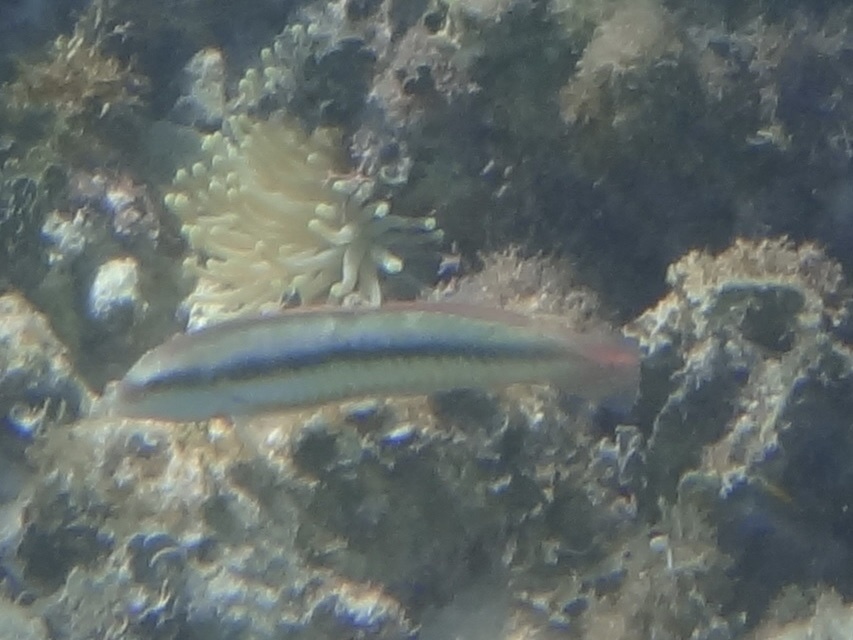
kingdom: Animalia
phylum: Chordata
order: Perciformes
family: Labridae
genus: Halichoeres
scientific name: Halichoeres bivittatus
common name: Slippery dick
